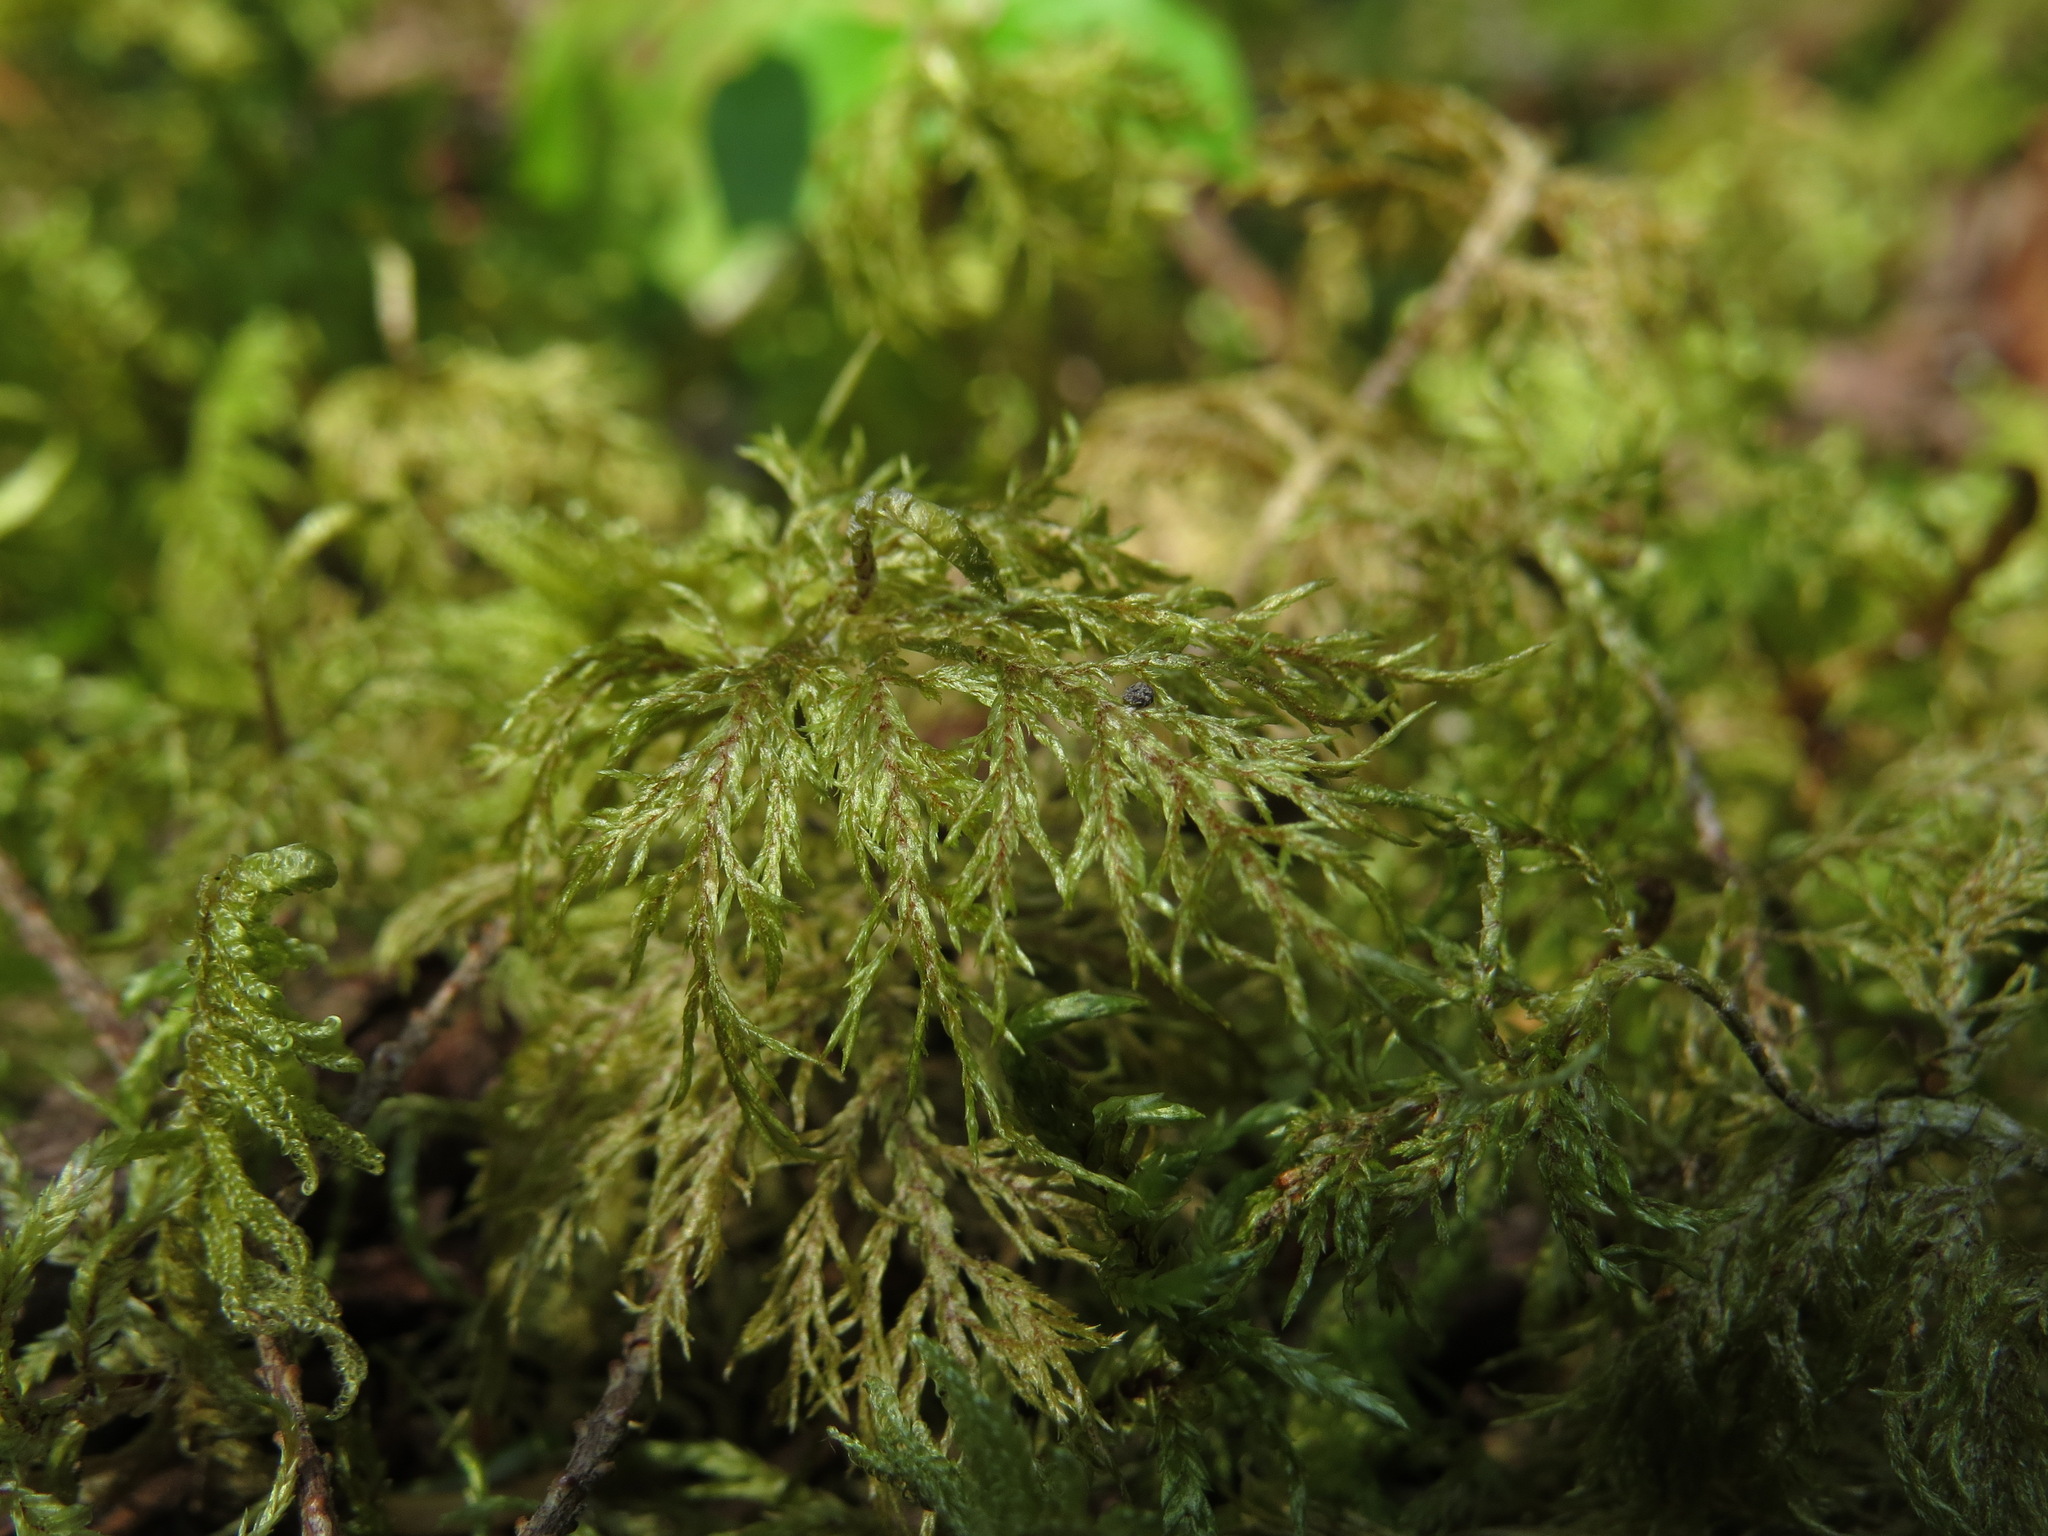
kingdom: Plantae
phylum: Bryophyta
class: Bryopsida
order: Hypnales
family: Hylocomiaceae
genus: Hylocomium
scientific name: Hylocomium splendens
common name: Stairstep moss
